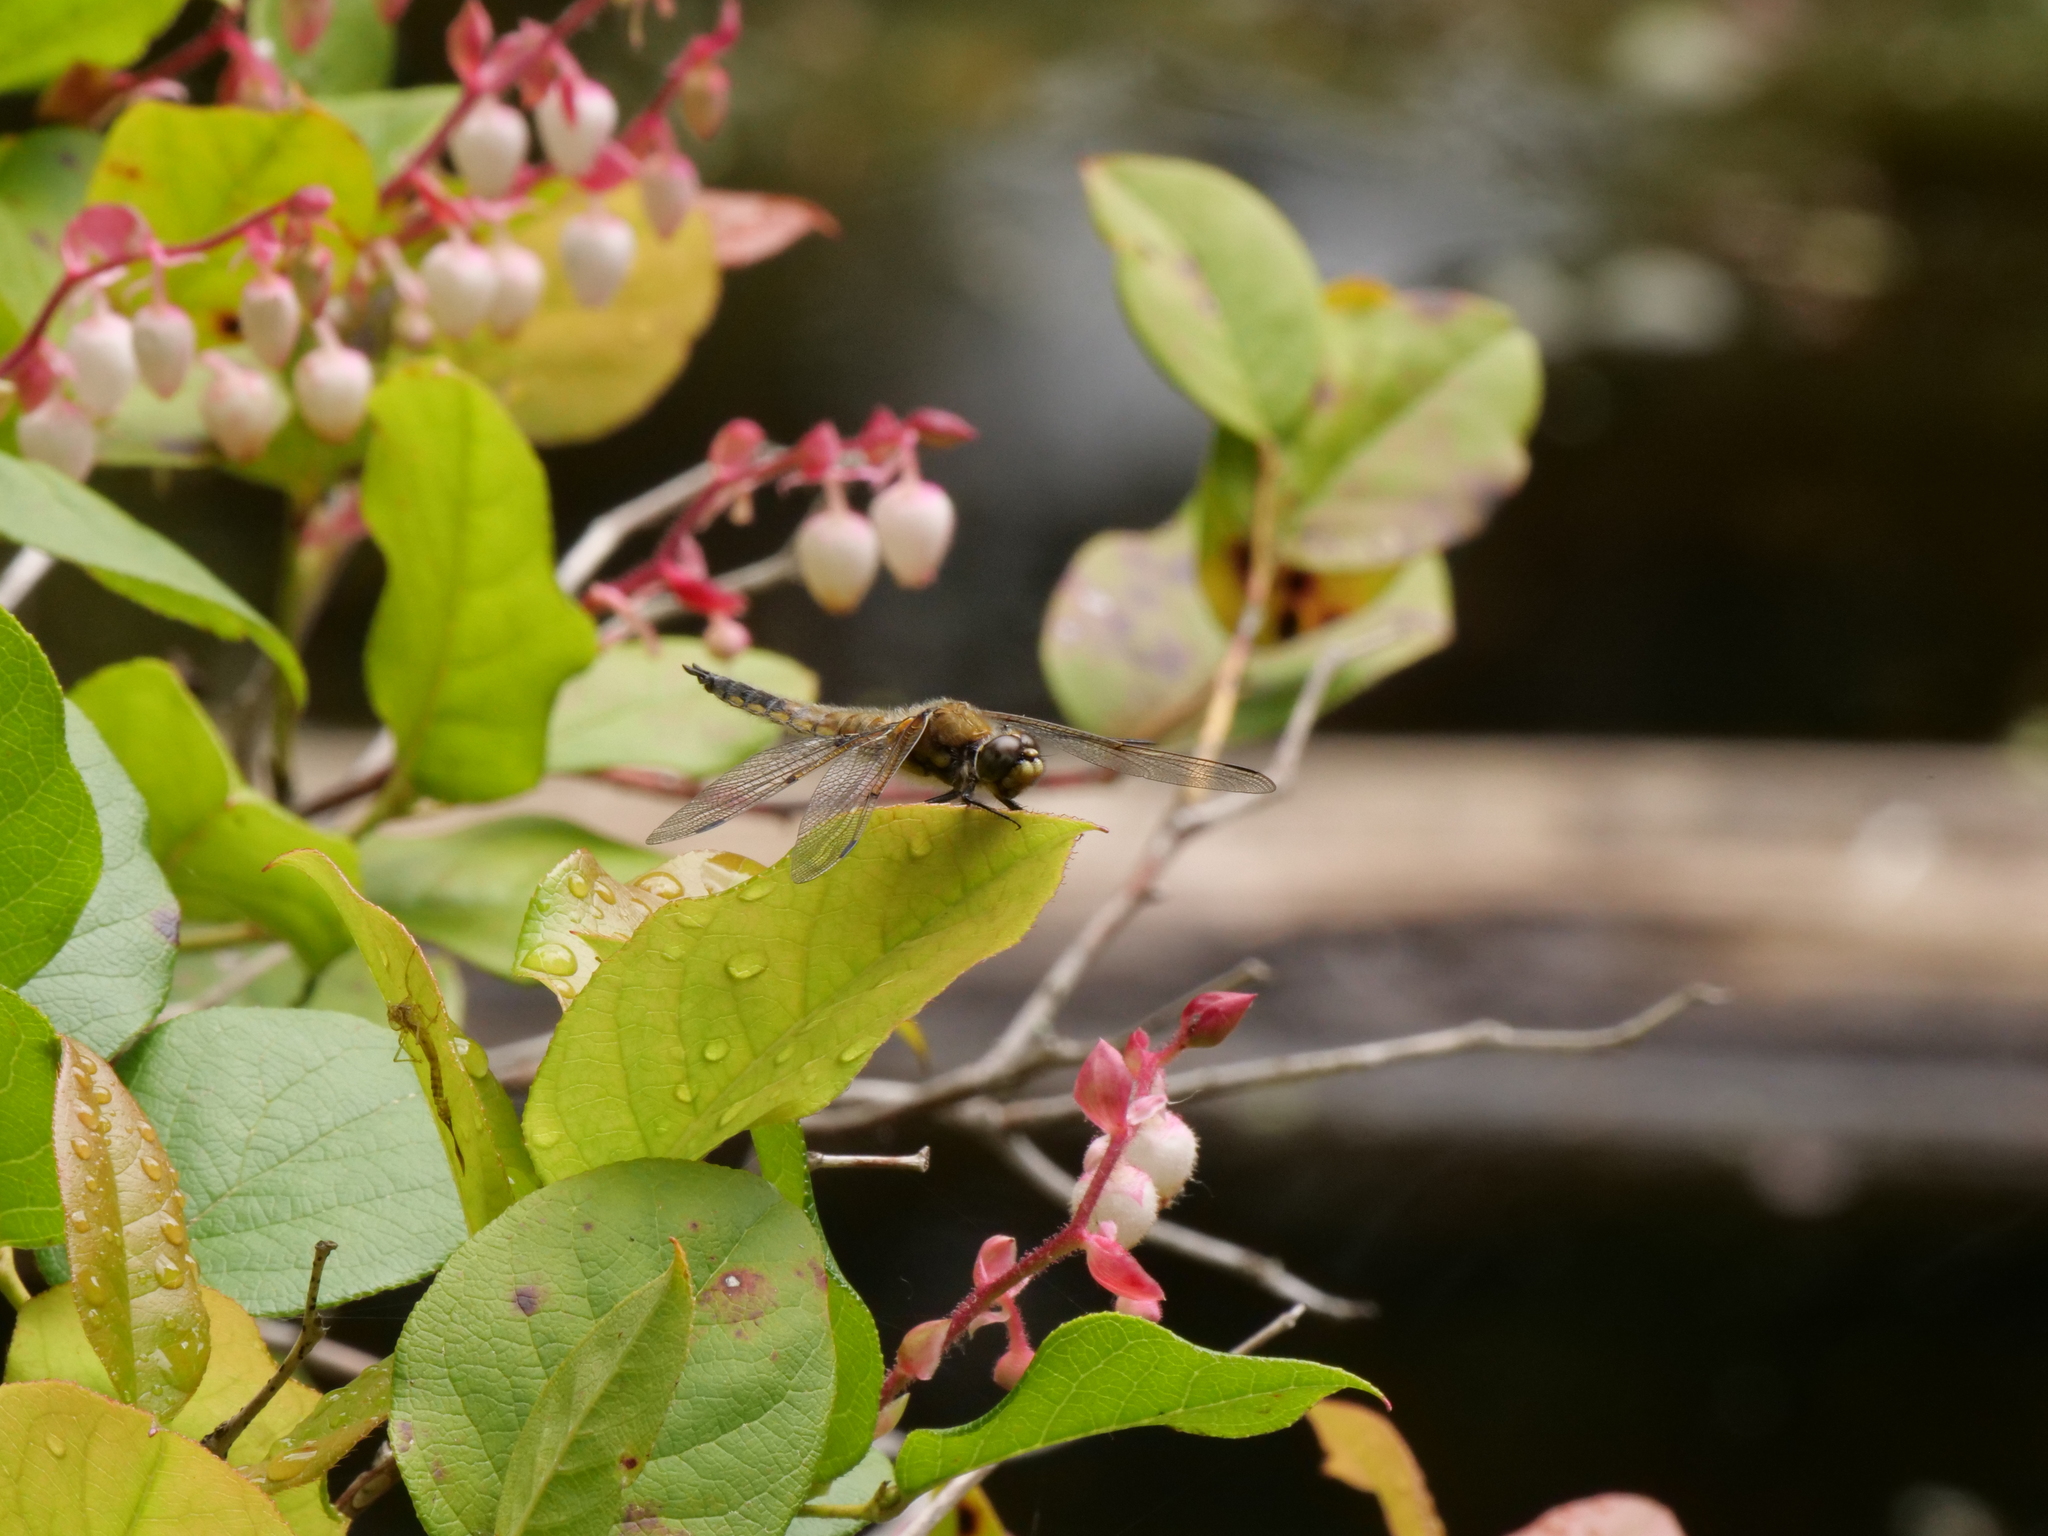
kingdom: Animalia
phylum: Arthropoda
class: Insecta
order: Odonata
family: Libellulidae
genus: Libellula
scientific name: Libellula quadrimaculata
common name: Four-spotted chaser
